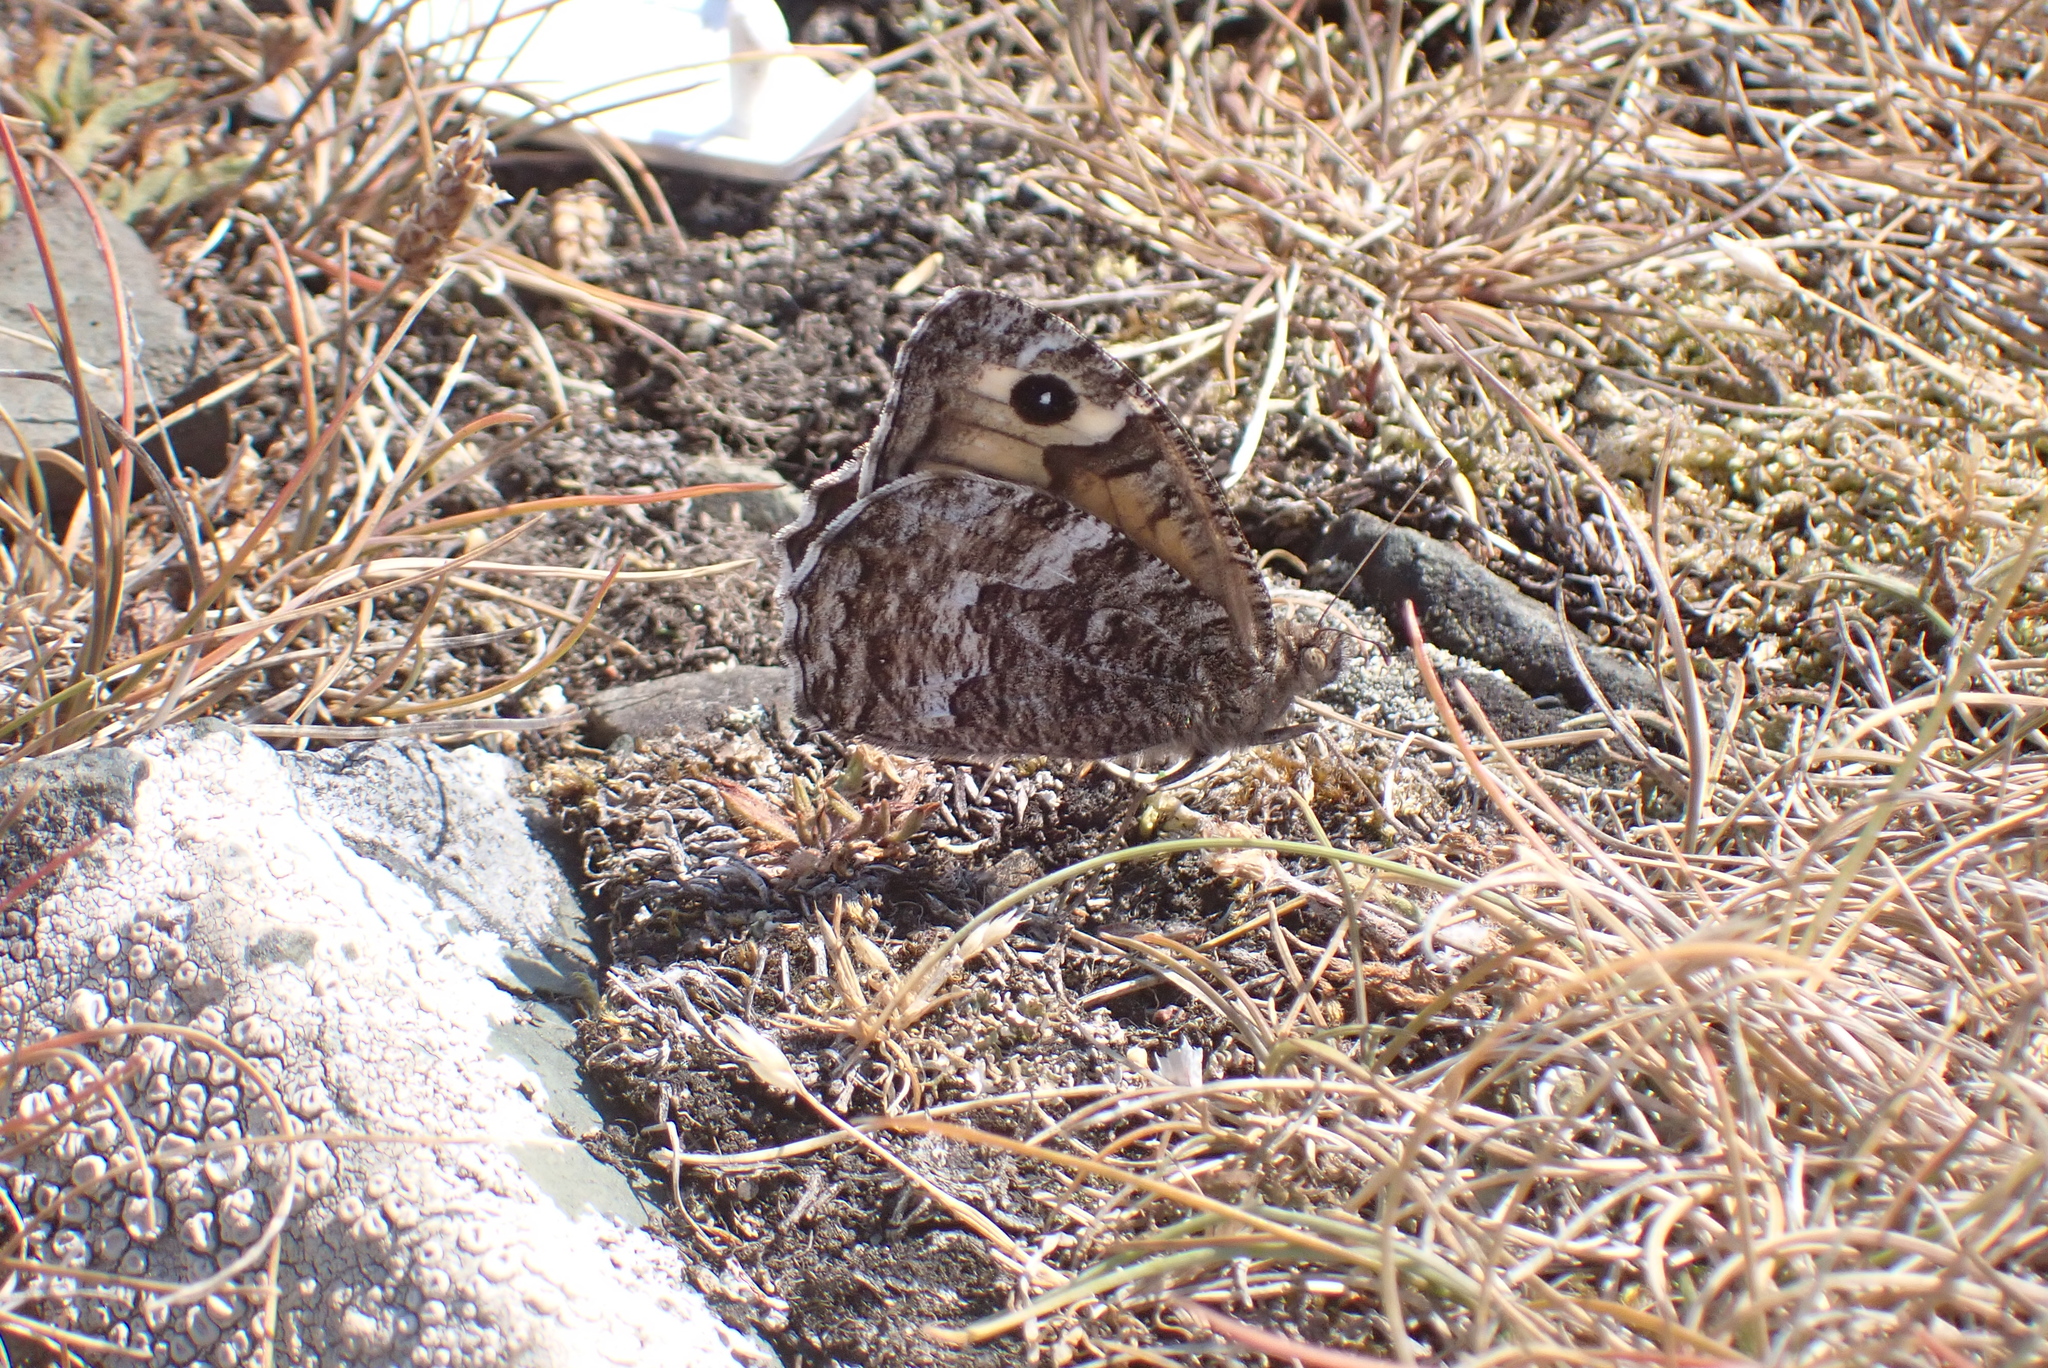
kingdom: Animalia
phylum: Arthropoda
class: Insecta
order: Lepidoptera
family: Nymphalidae
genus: Hipparchia
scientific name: Hipparchia semele
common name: Grayling
